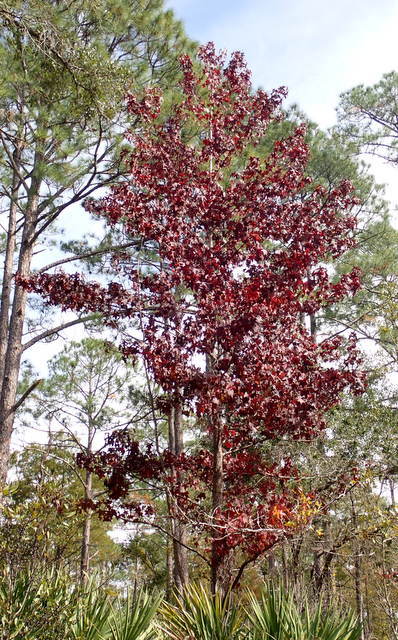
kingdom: Plantae
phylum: Tracheophyta
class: Magnoliopsida
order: Saxifragales
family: Altingiaceae
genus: Liquidambar
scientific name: Liquidambar styraciflua
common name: Sweet gum
